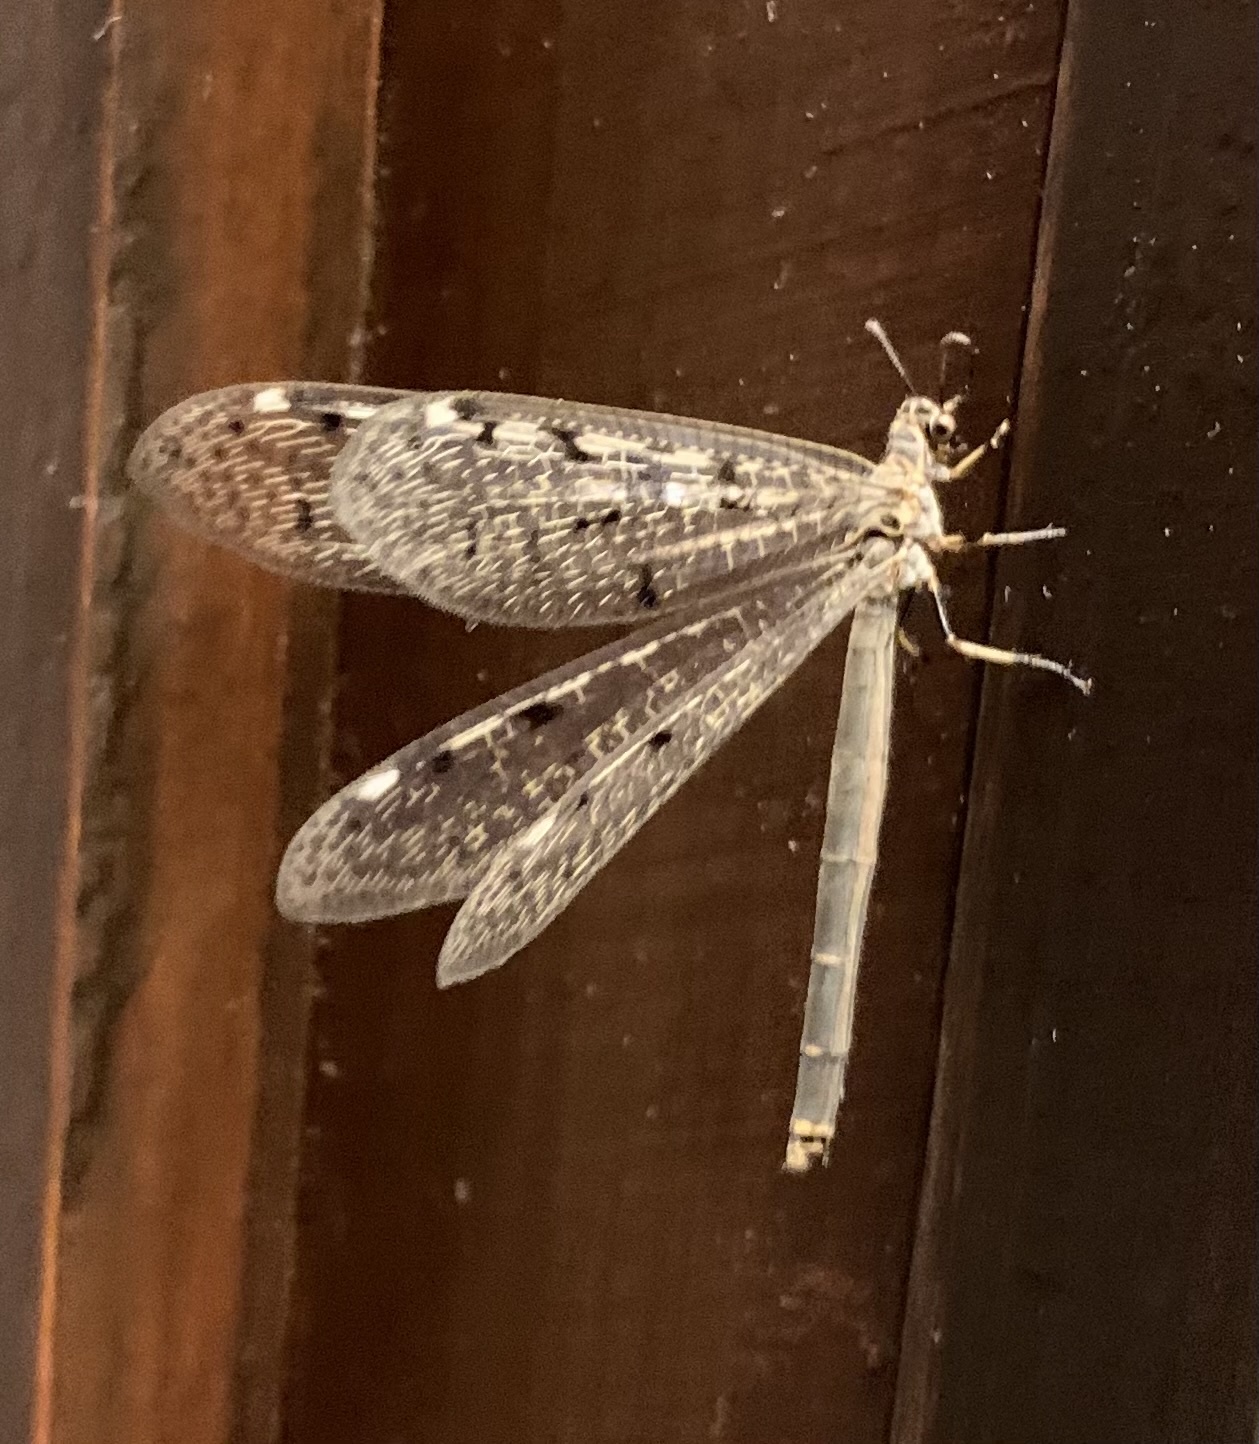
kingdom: Animalia
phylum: Arthropoda
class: Insecta
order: Neuroptera
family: Myrmeleontidae
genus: Euroleon
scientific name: Euroleon nostras
